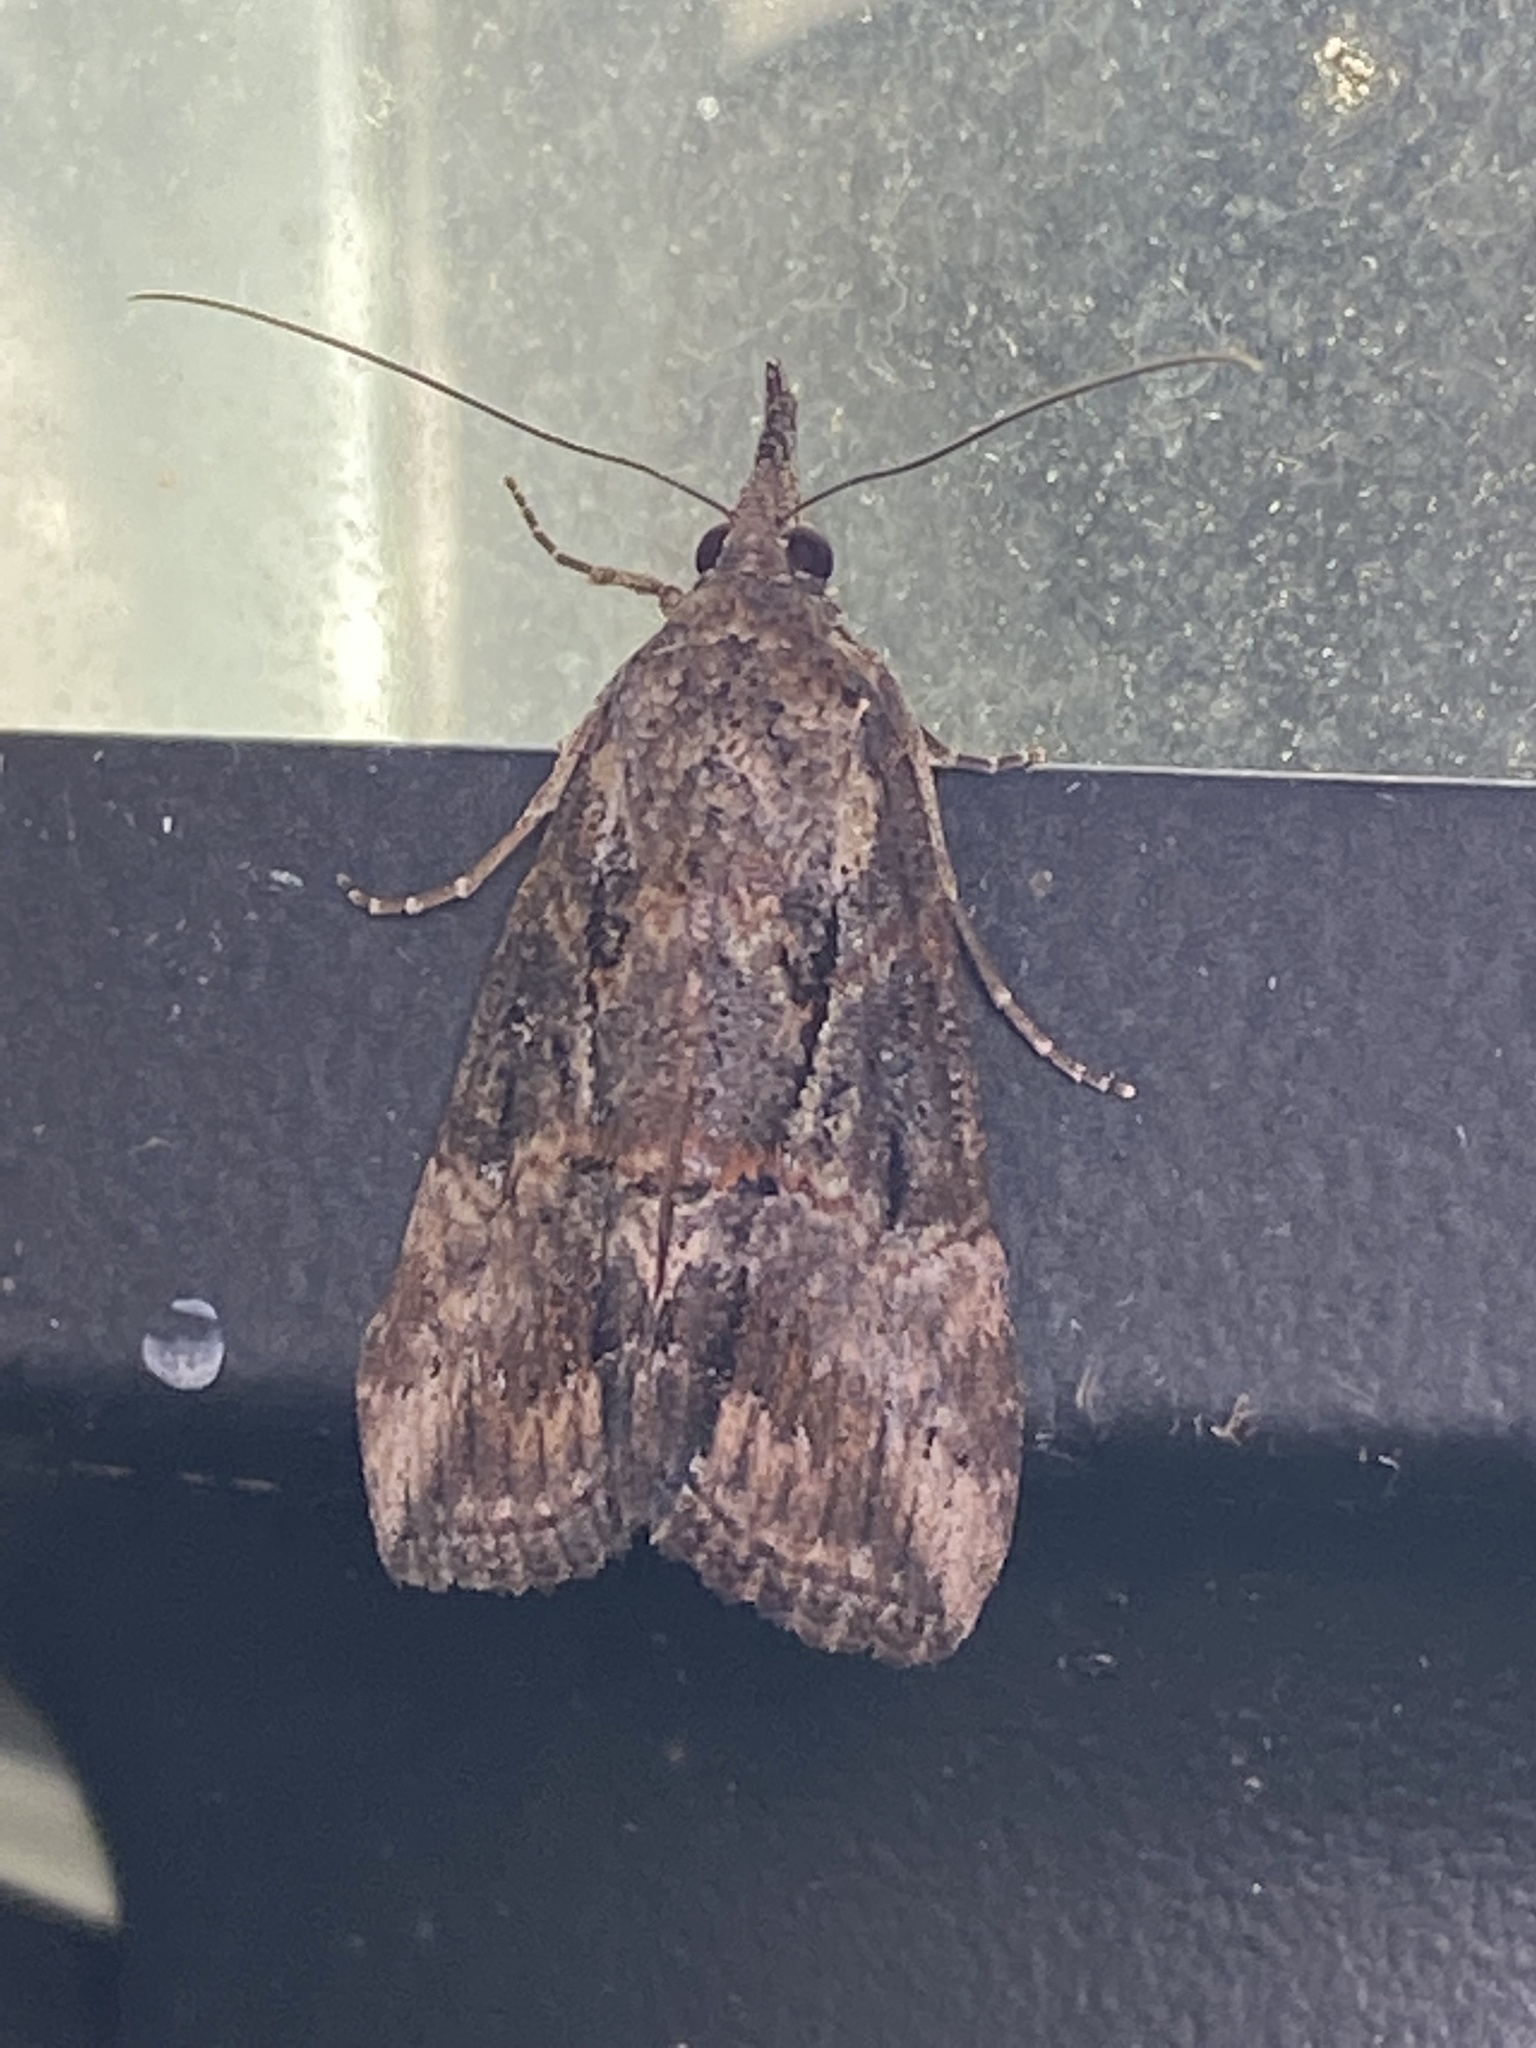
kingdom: Animalia
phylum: Arthropoda
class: Insecta
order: Lepidoptera
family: Erebidae
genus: Hypena
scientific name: Hypena scabra
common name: Green cloverworm
